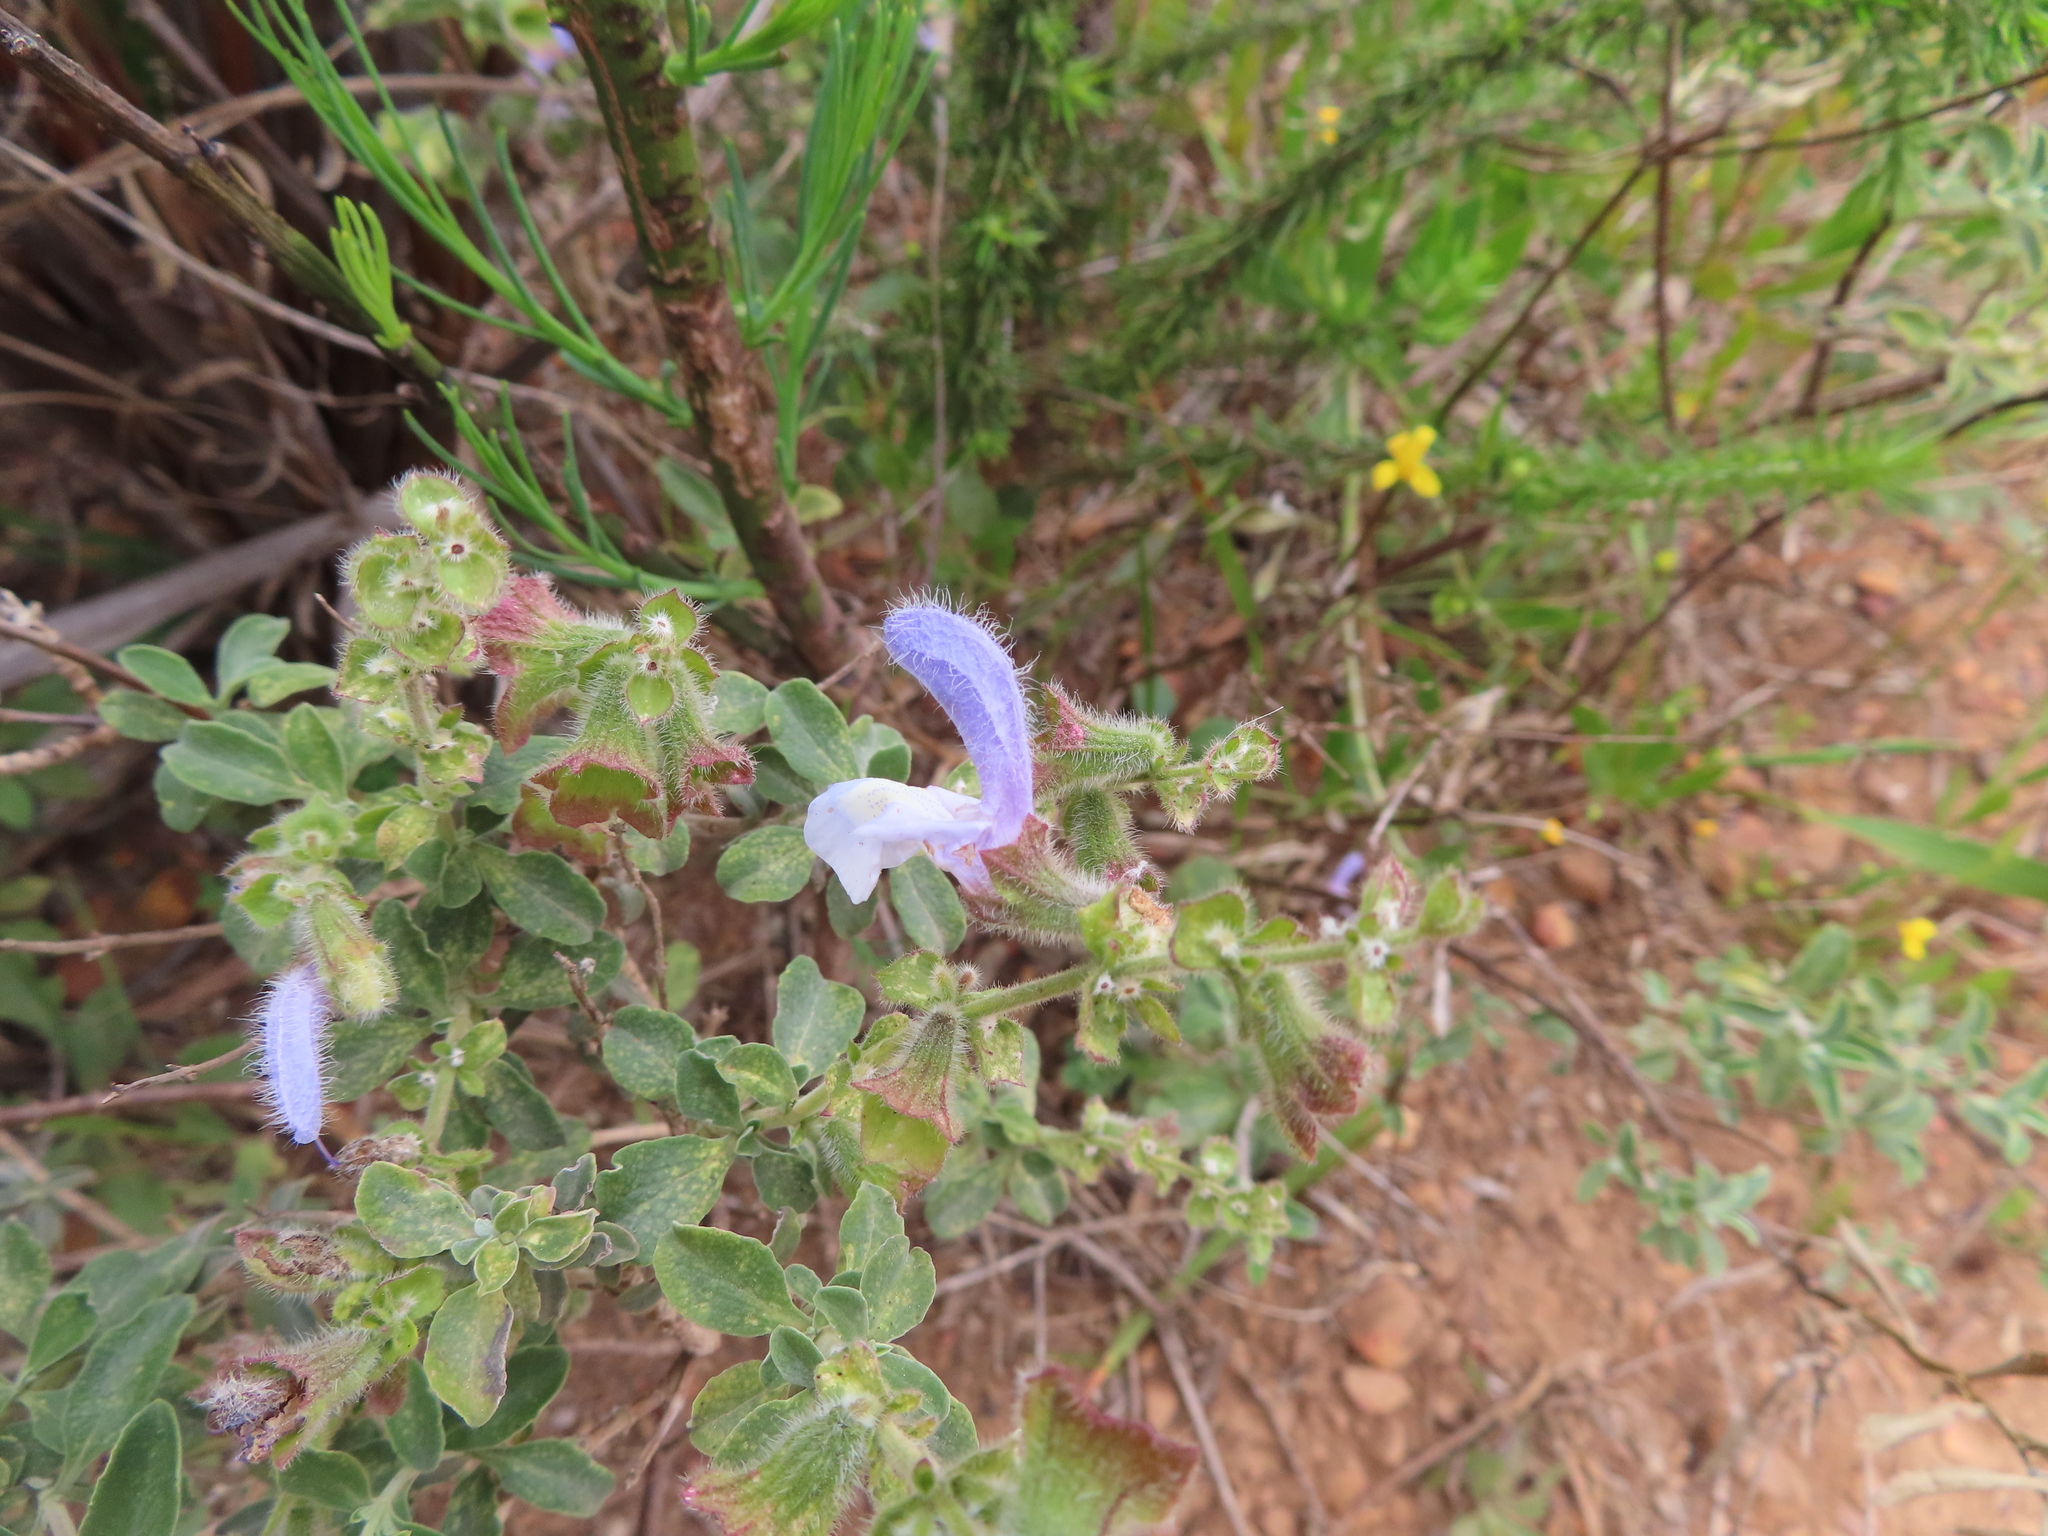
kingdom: Plantae
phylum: Tracheophyta
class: Magnoliopsida
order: Lamiales
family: Lamiaceae
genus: Salvia
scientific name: Salvia africana
